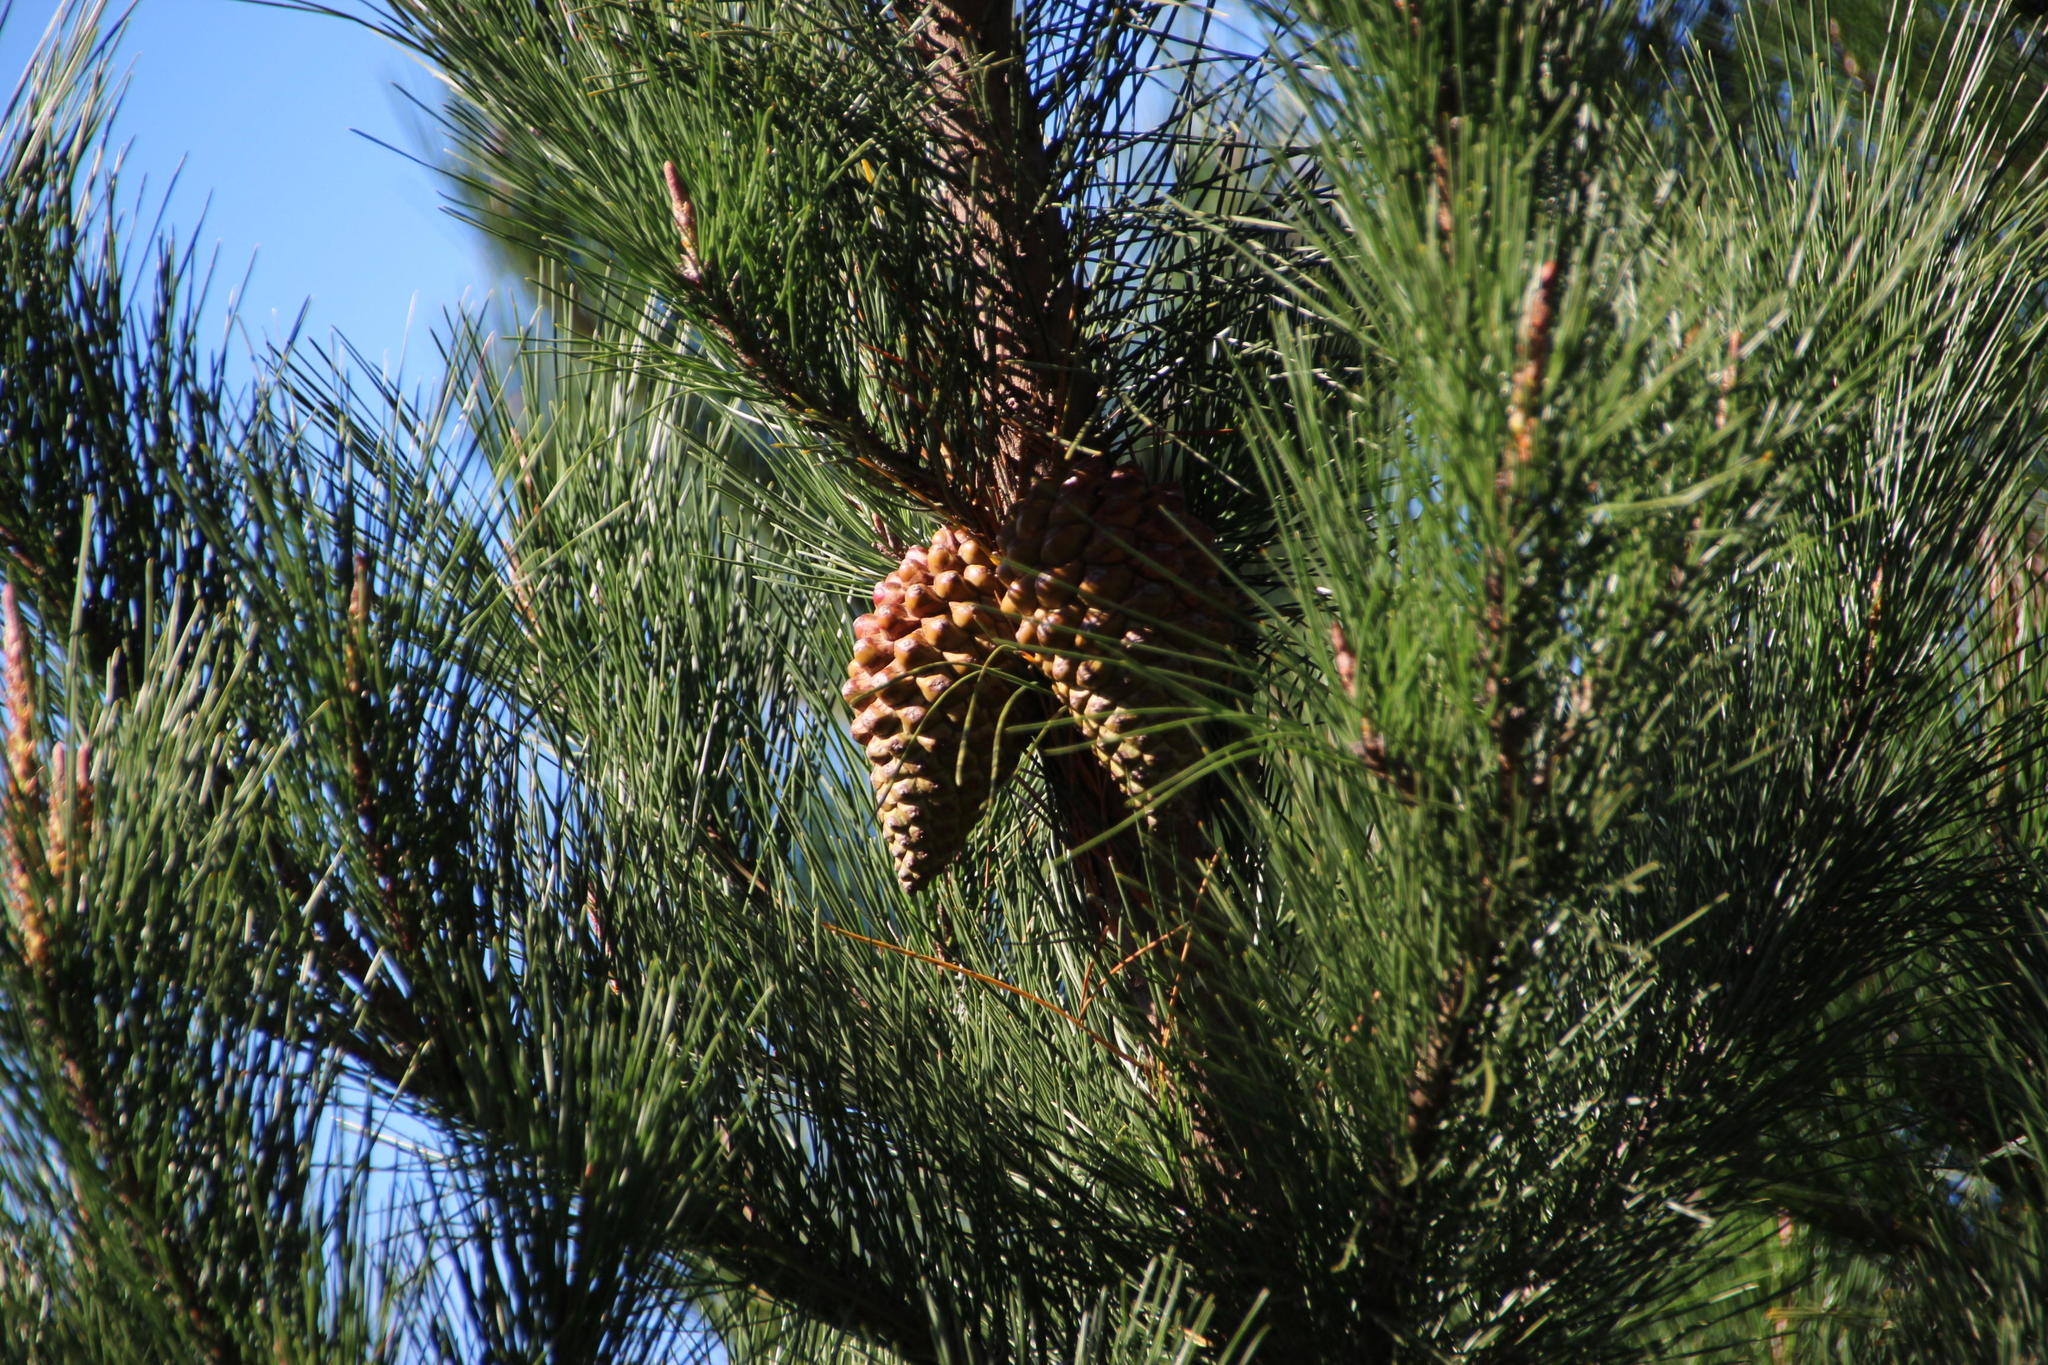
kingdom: Plantae
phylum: Tracheophyta
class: Pinopsida
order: Pinales
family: Pinaceae
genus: Pinus
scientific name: Pinus radiata
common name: Monterey pine
